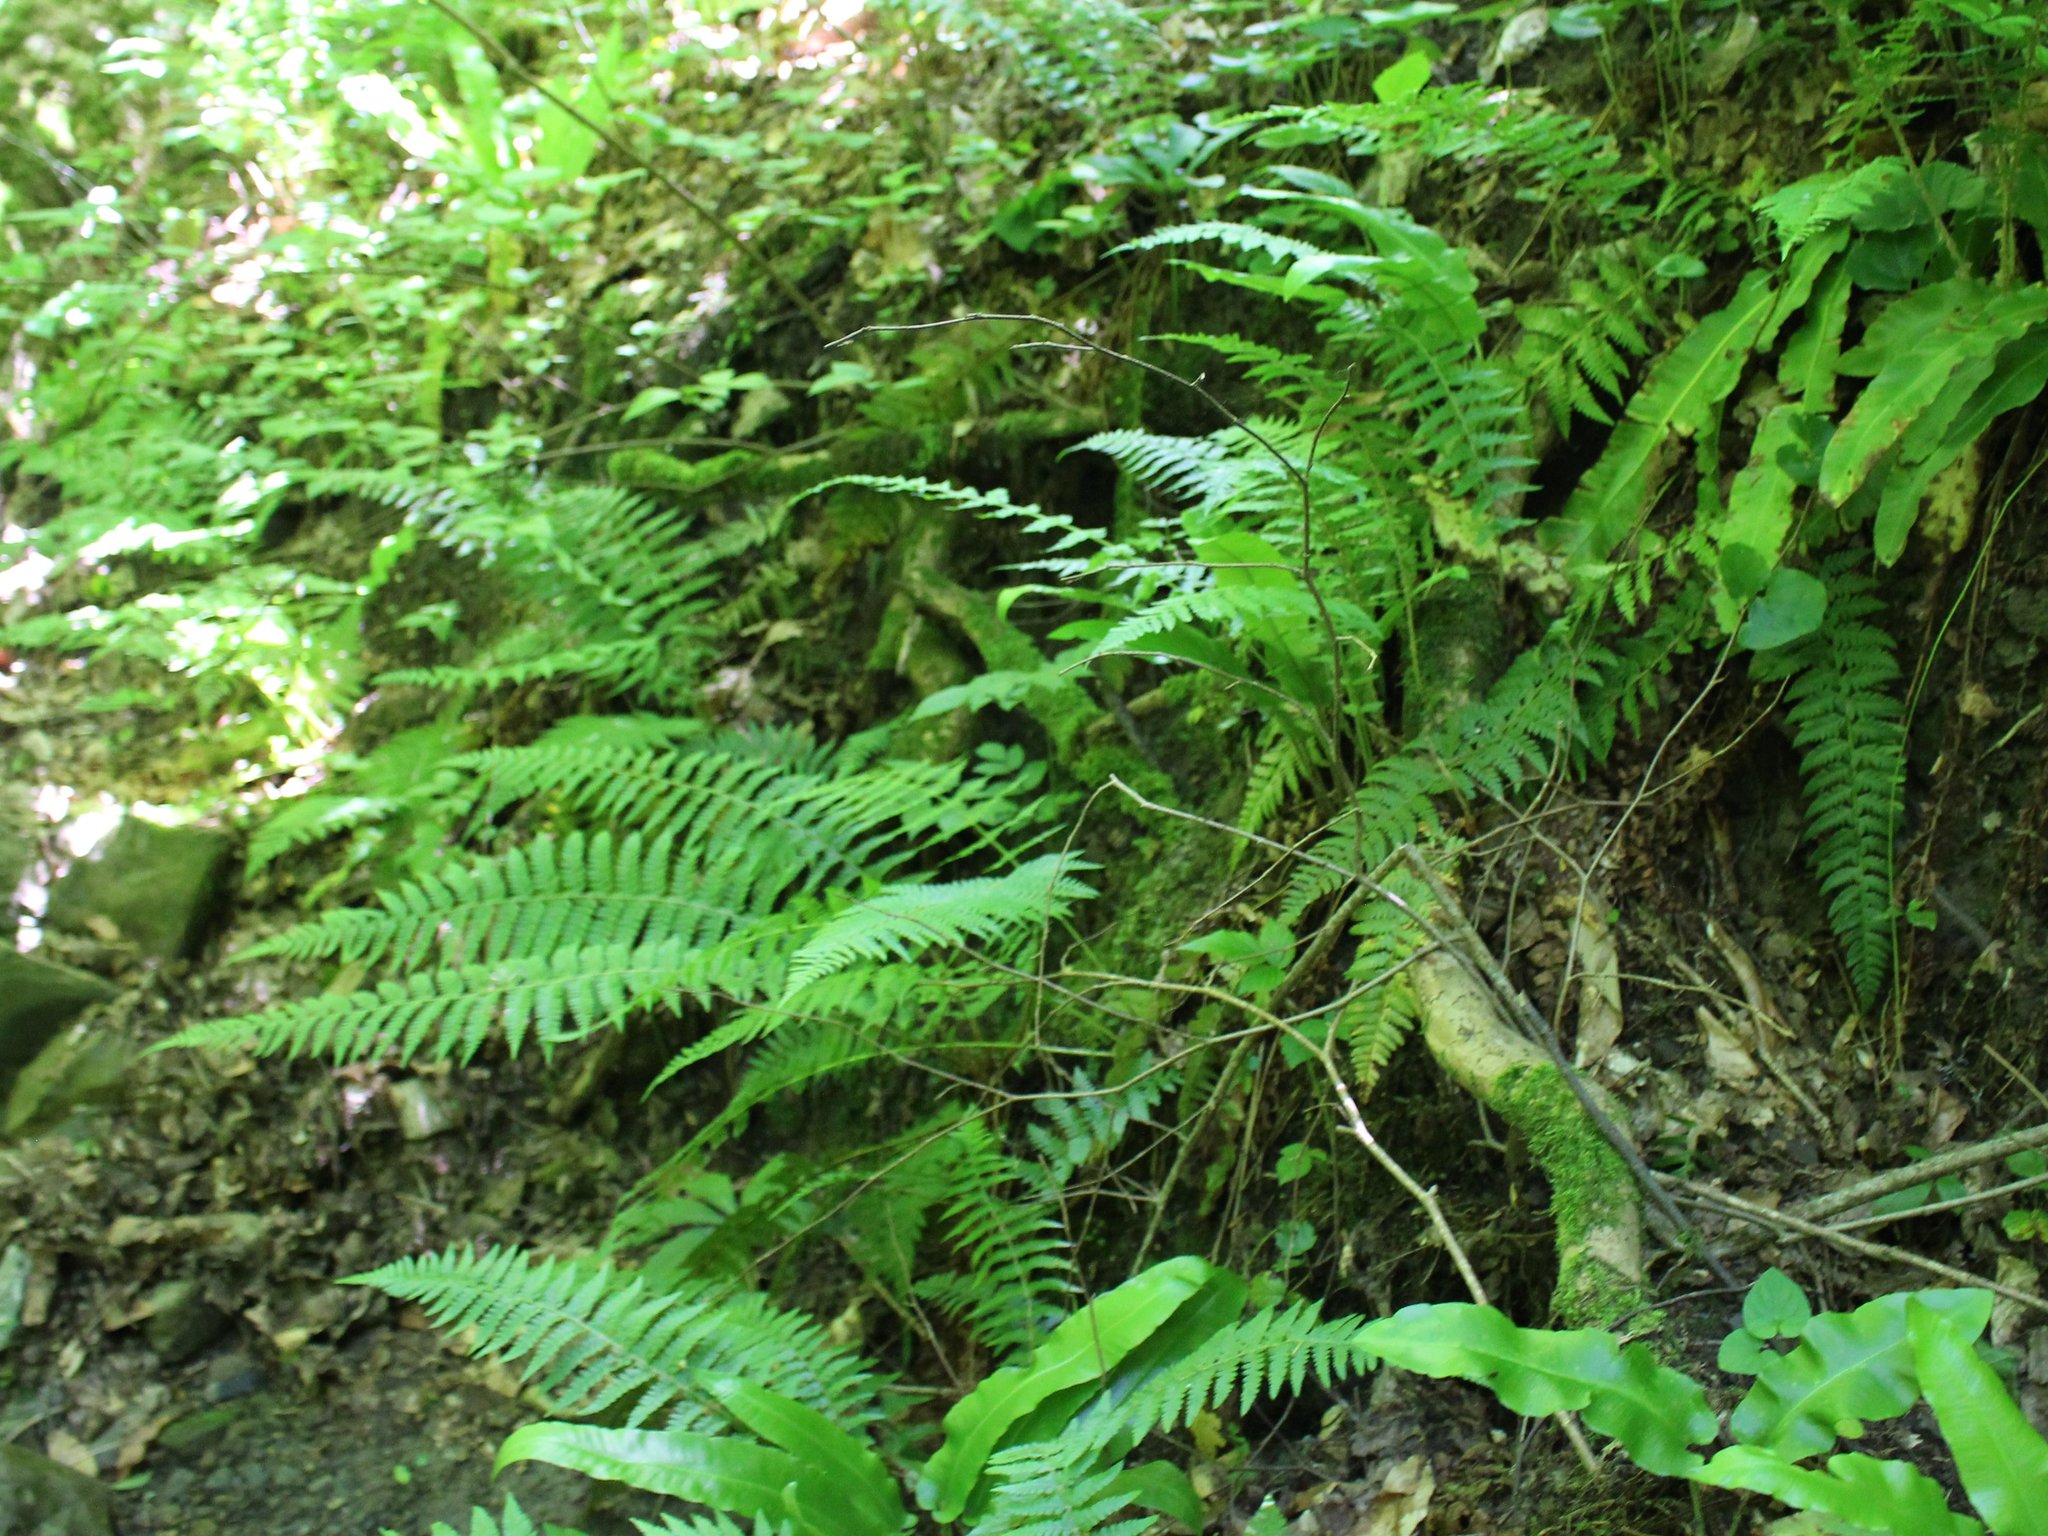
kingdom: Plantae
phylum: Tracheophyta
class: Polypodiopsida
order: Polypodiales
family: Dryopteridaceae
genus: Polystichum
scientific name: Polystichum aculeatum
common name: Hard shield-fern
